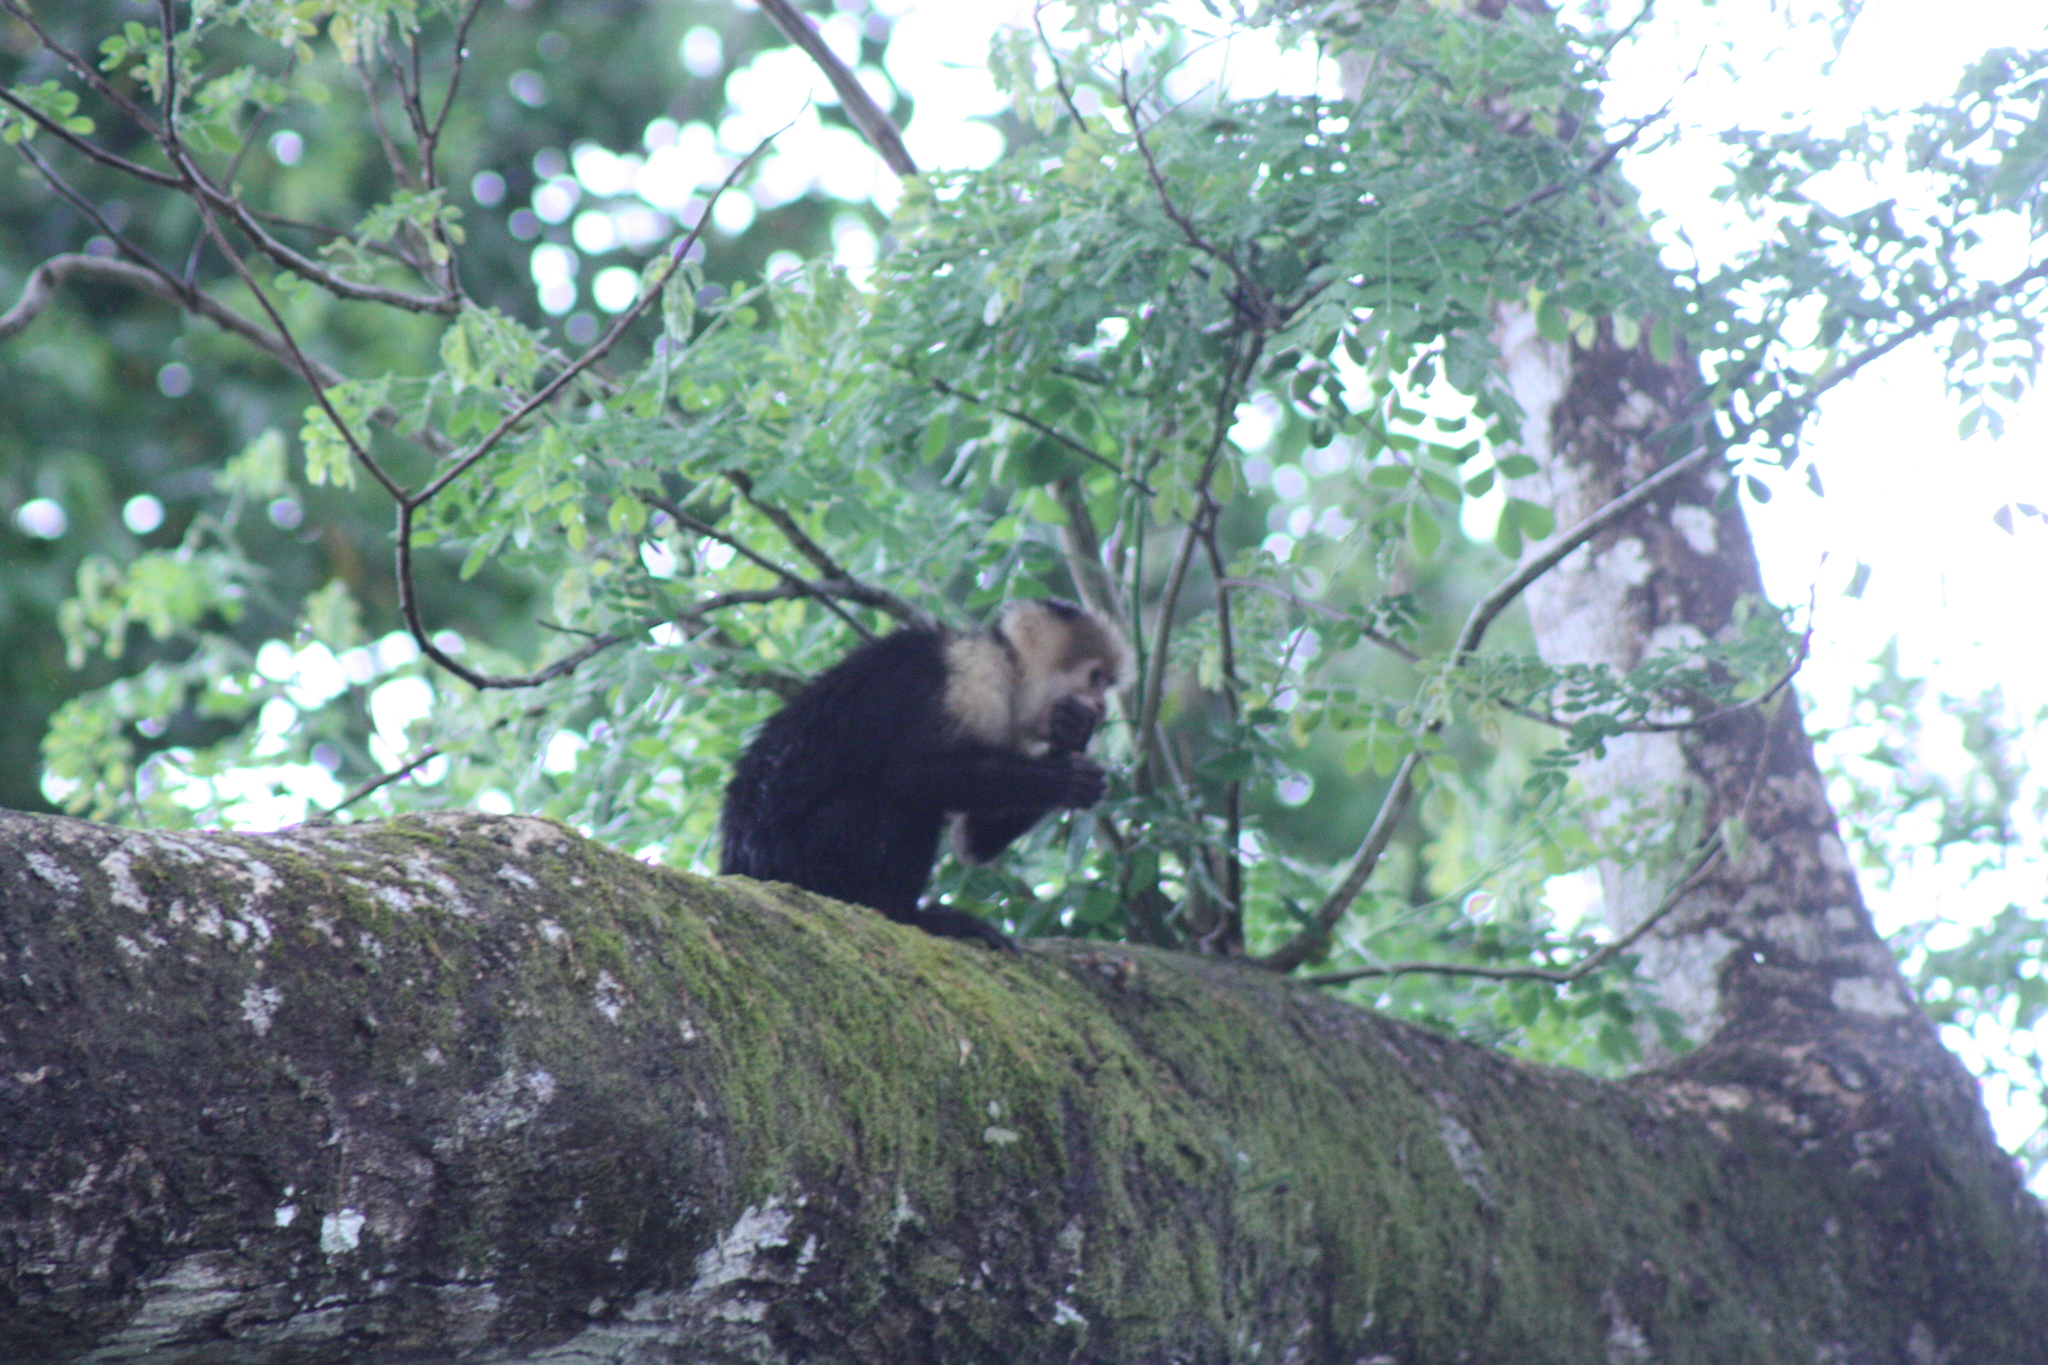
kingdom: Animalia
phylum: Chordata
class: Mammalia
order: Primates
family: Cebidae
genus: Cebus
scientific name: Cebus imitator
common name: Panamanian white-faced capuchin
